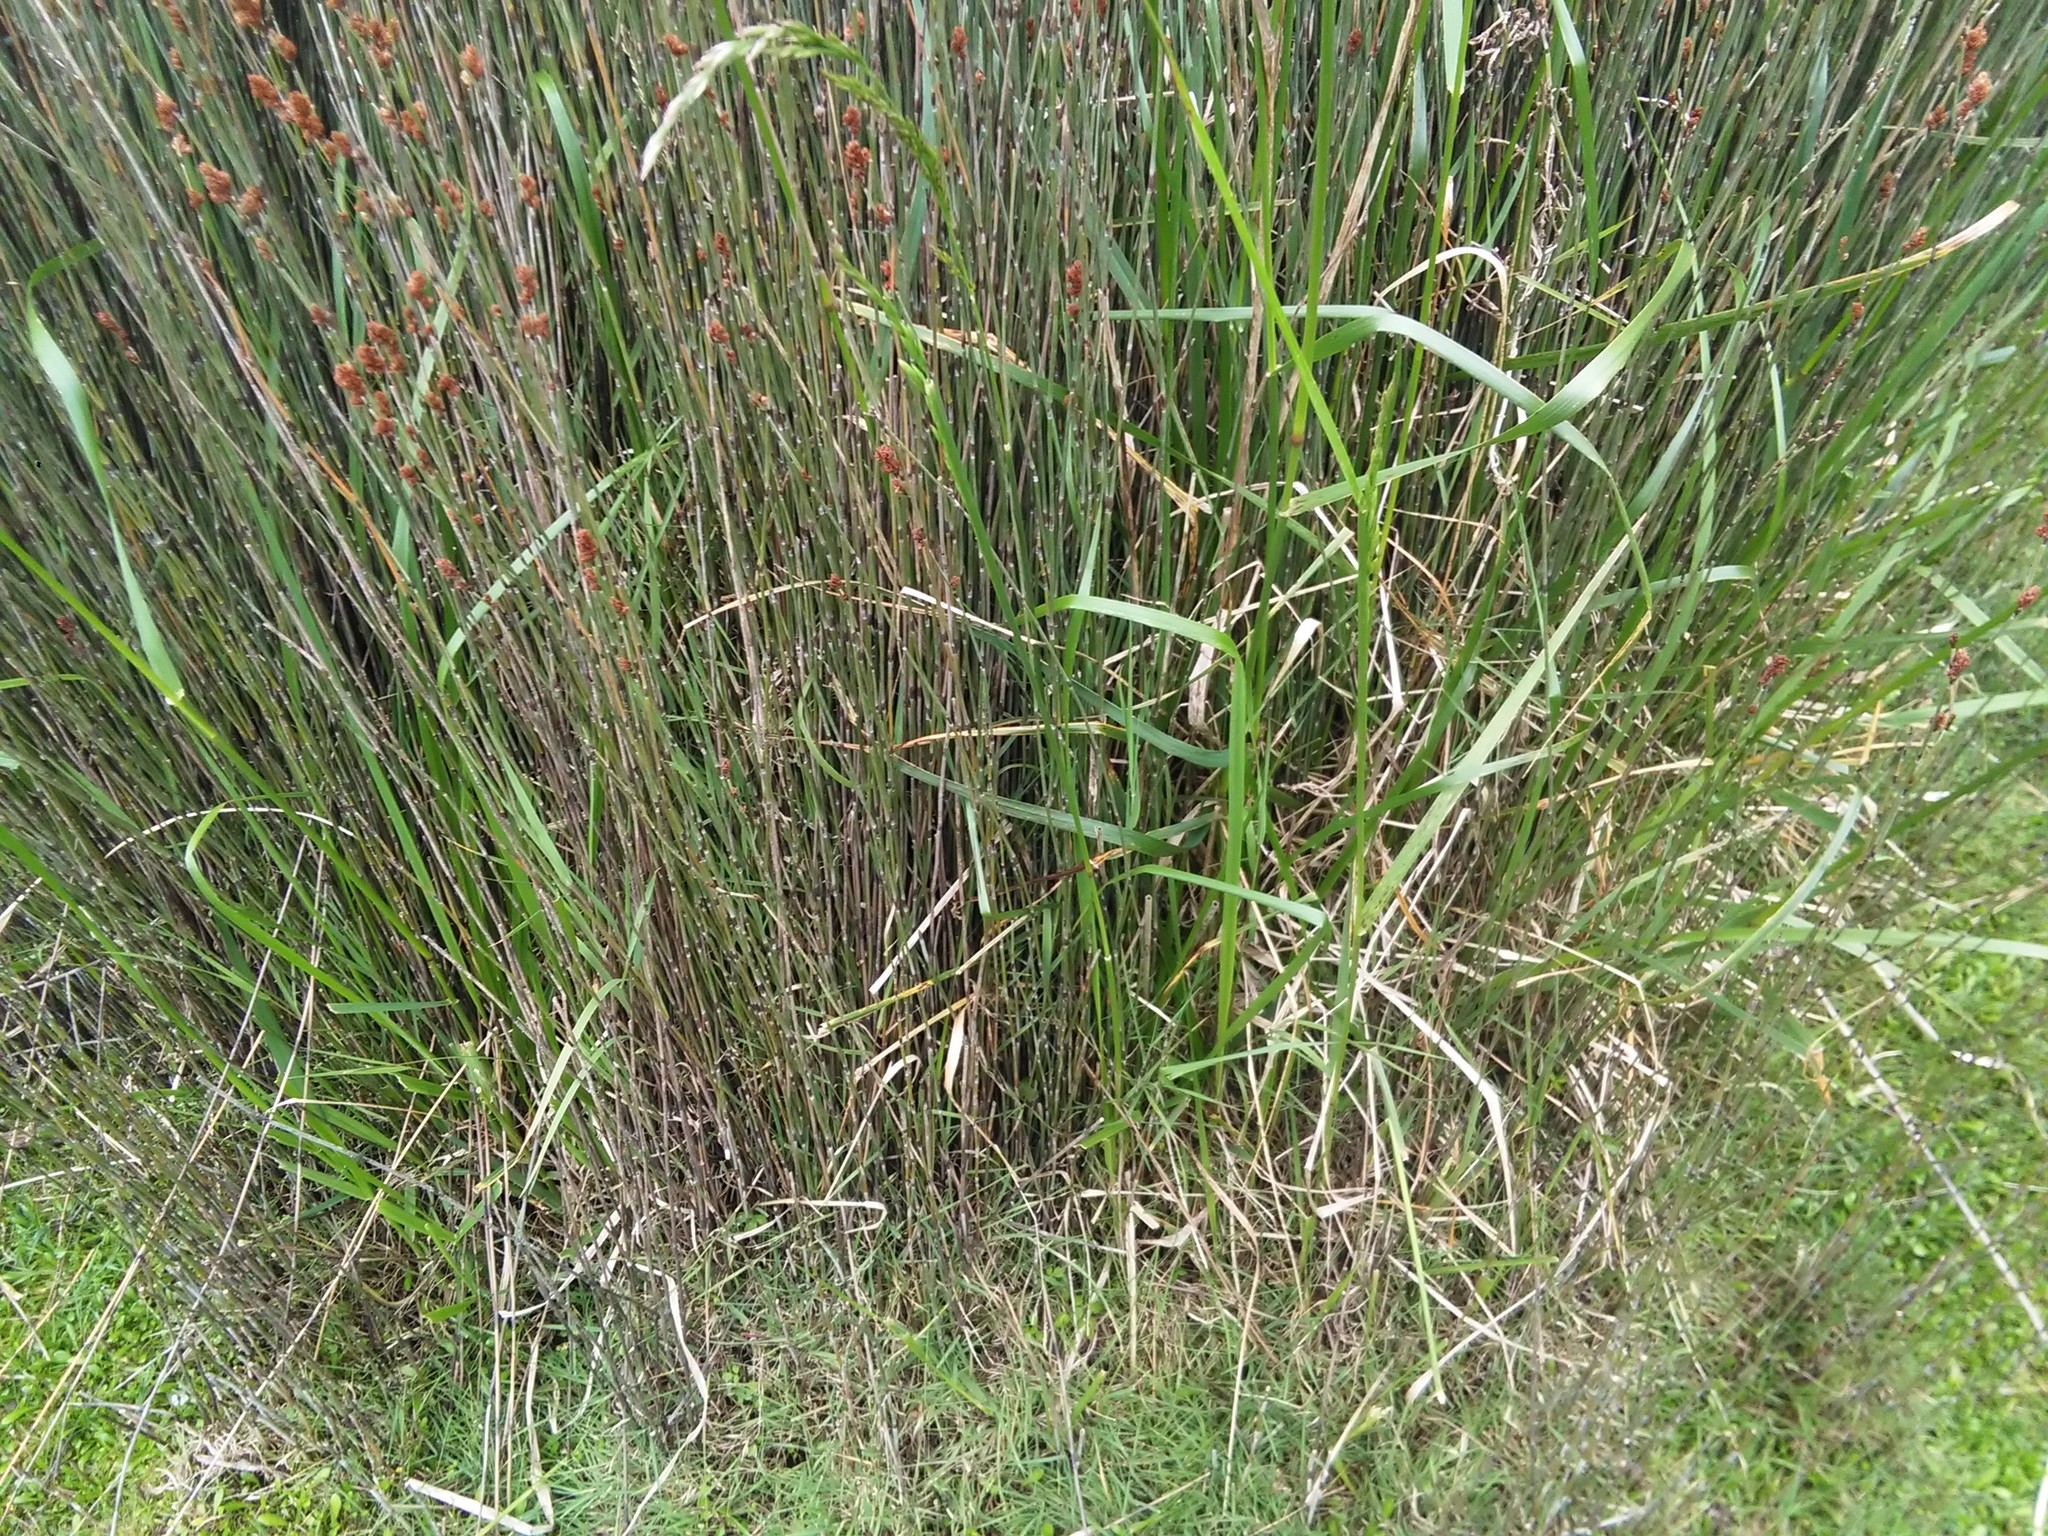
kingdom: Plantae
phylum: Tracheophyta
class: Liliopsida
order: Poales
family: Restionaceae
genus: Apodasmia
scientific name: Apodasmia similis
